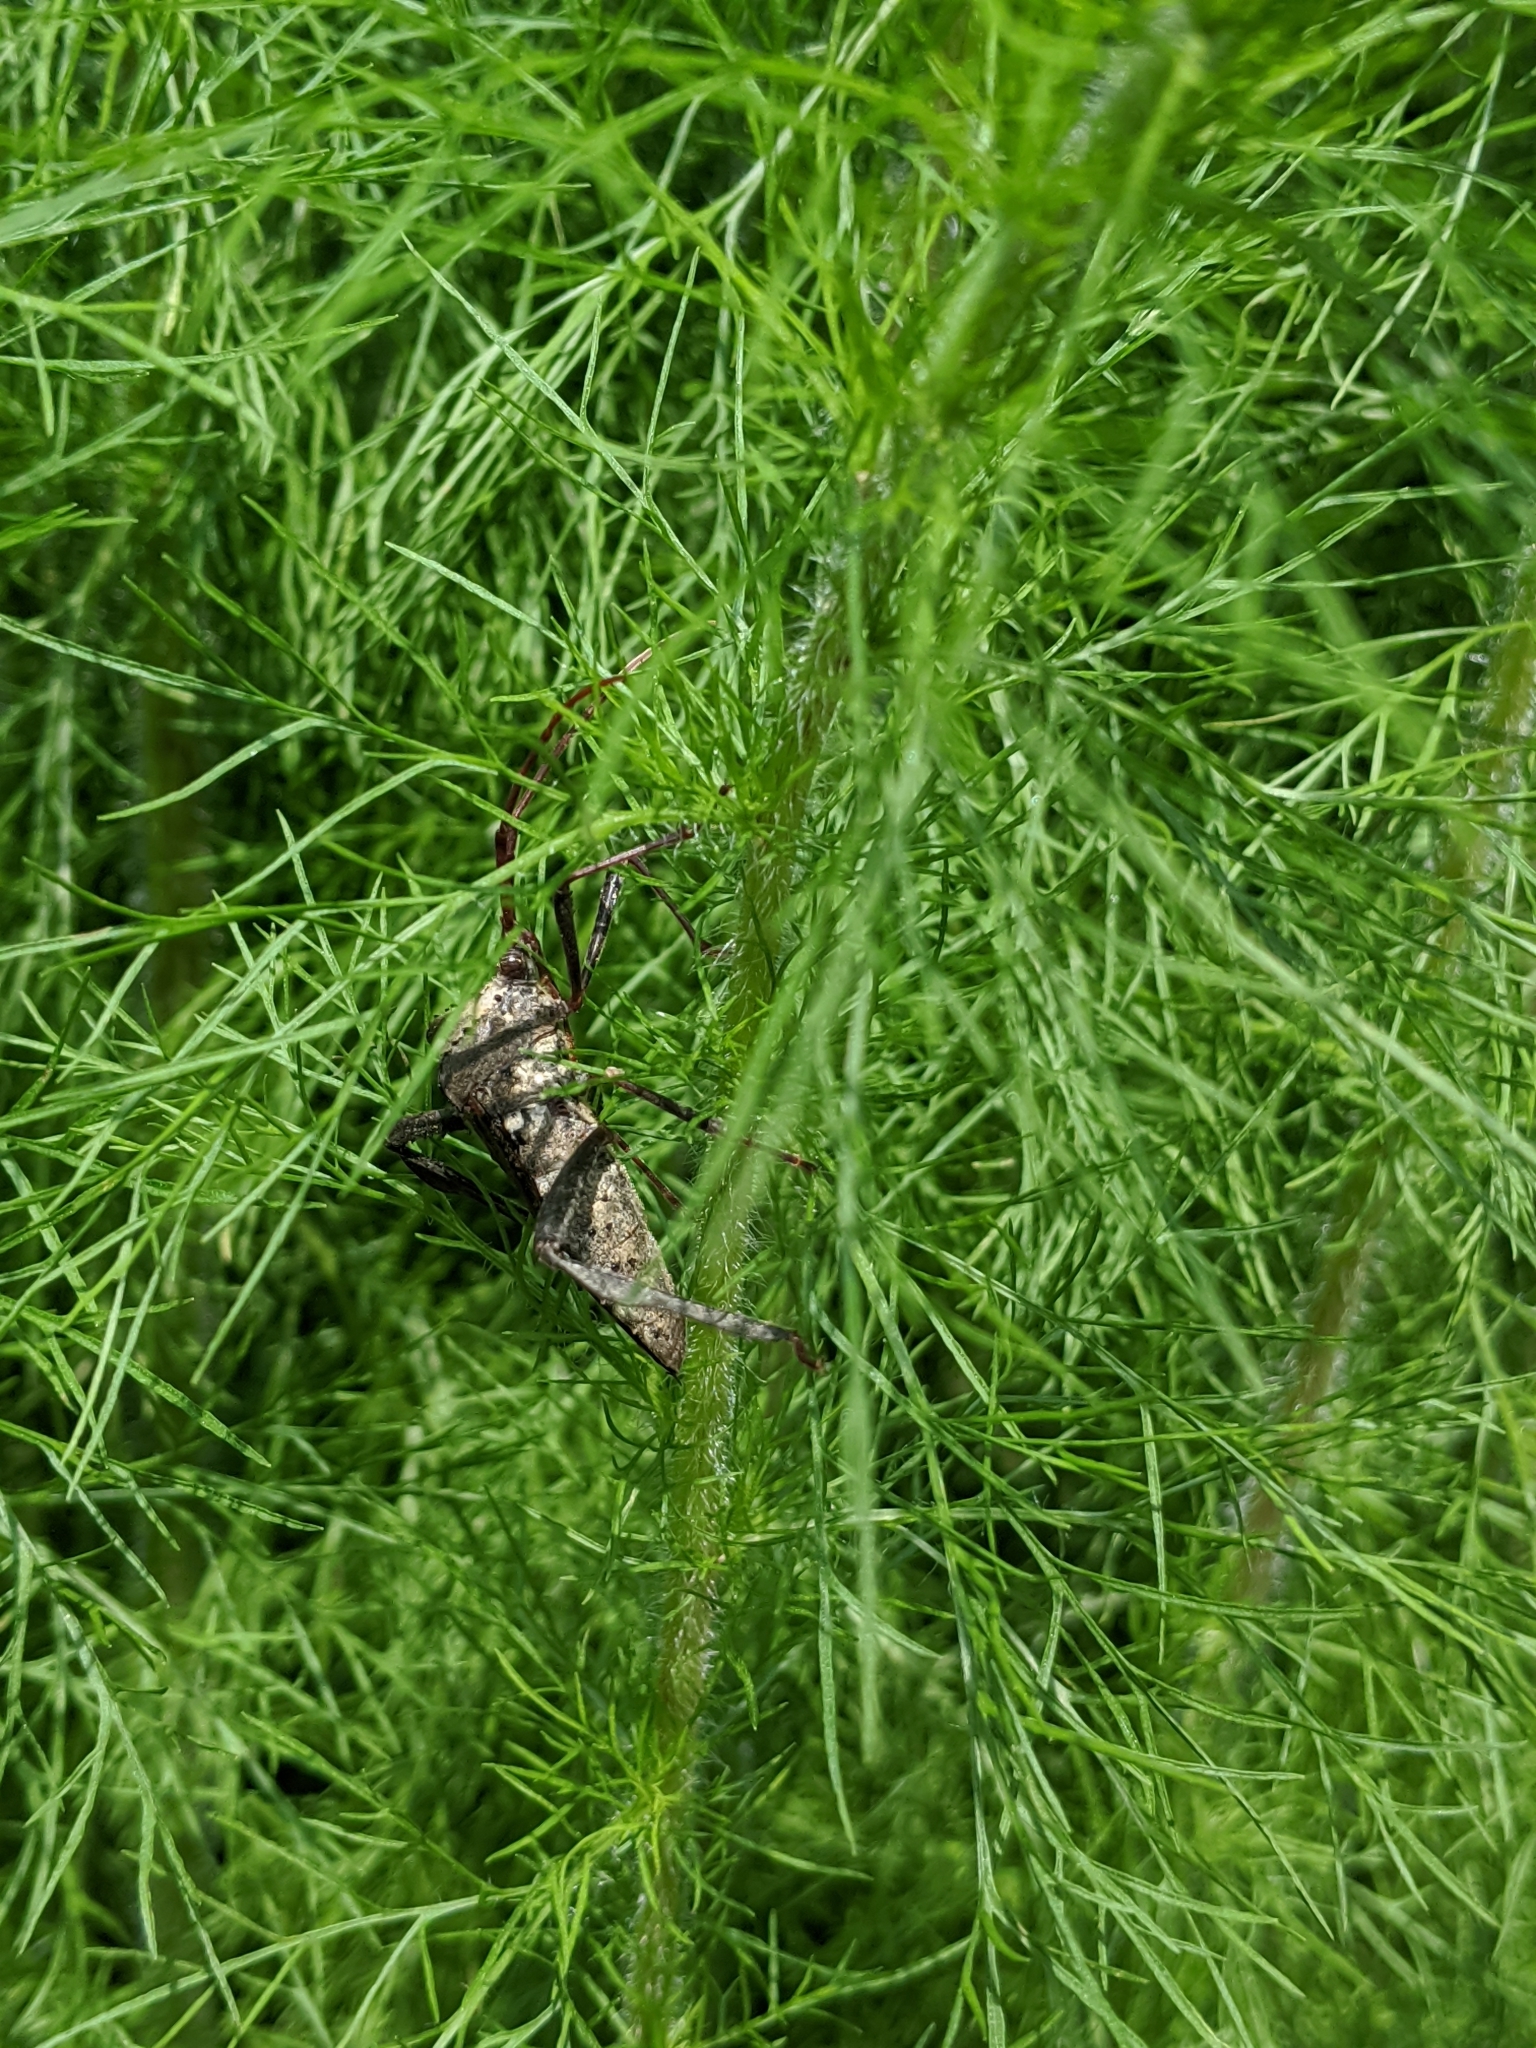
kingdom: Animalia
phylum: Arthropoda
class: Insecta
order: Hemiptera
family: Coreidae
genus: Acanthocephala
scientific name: Acanthocephala declivis
